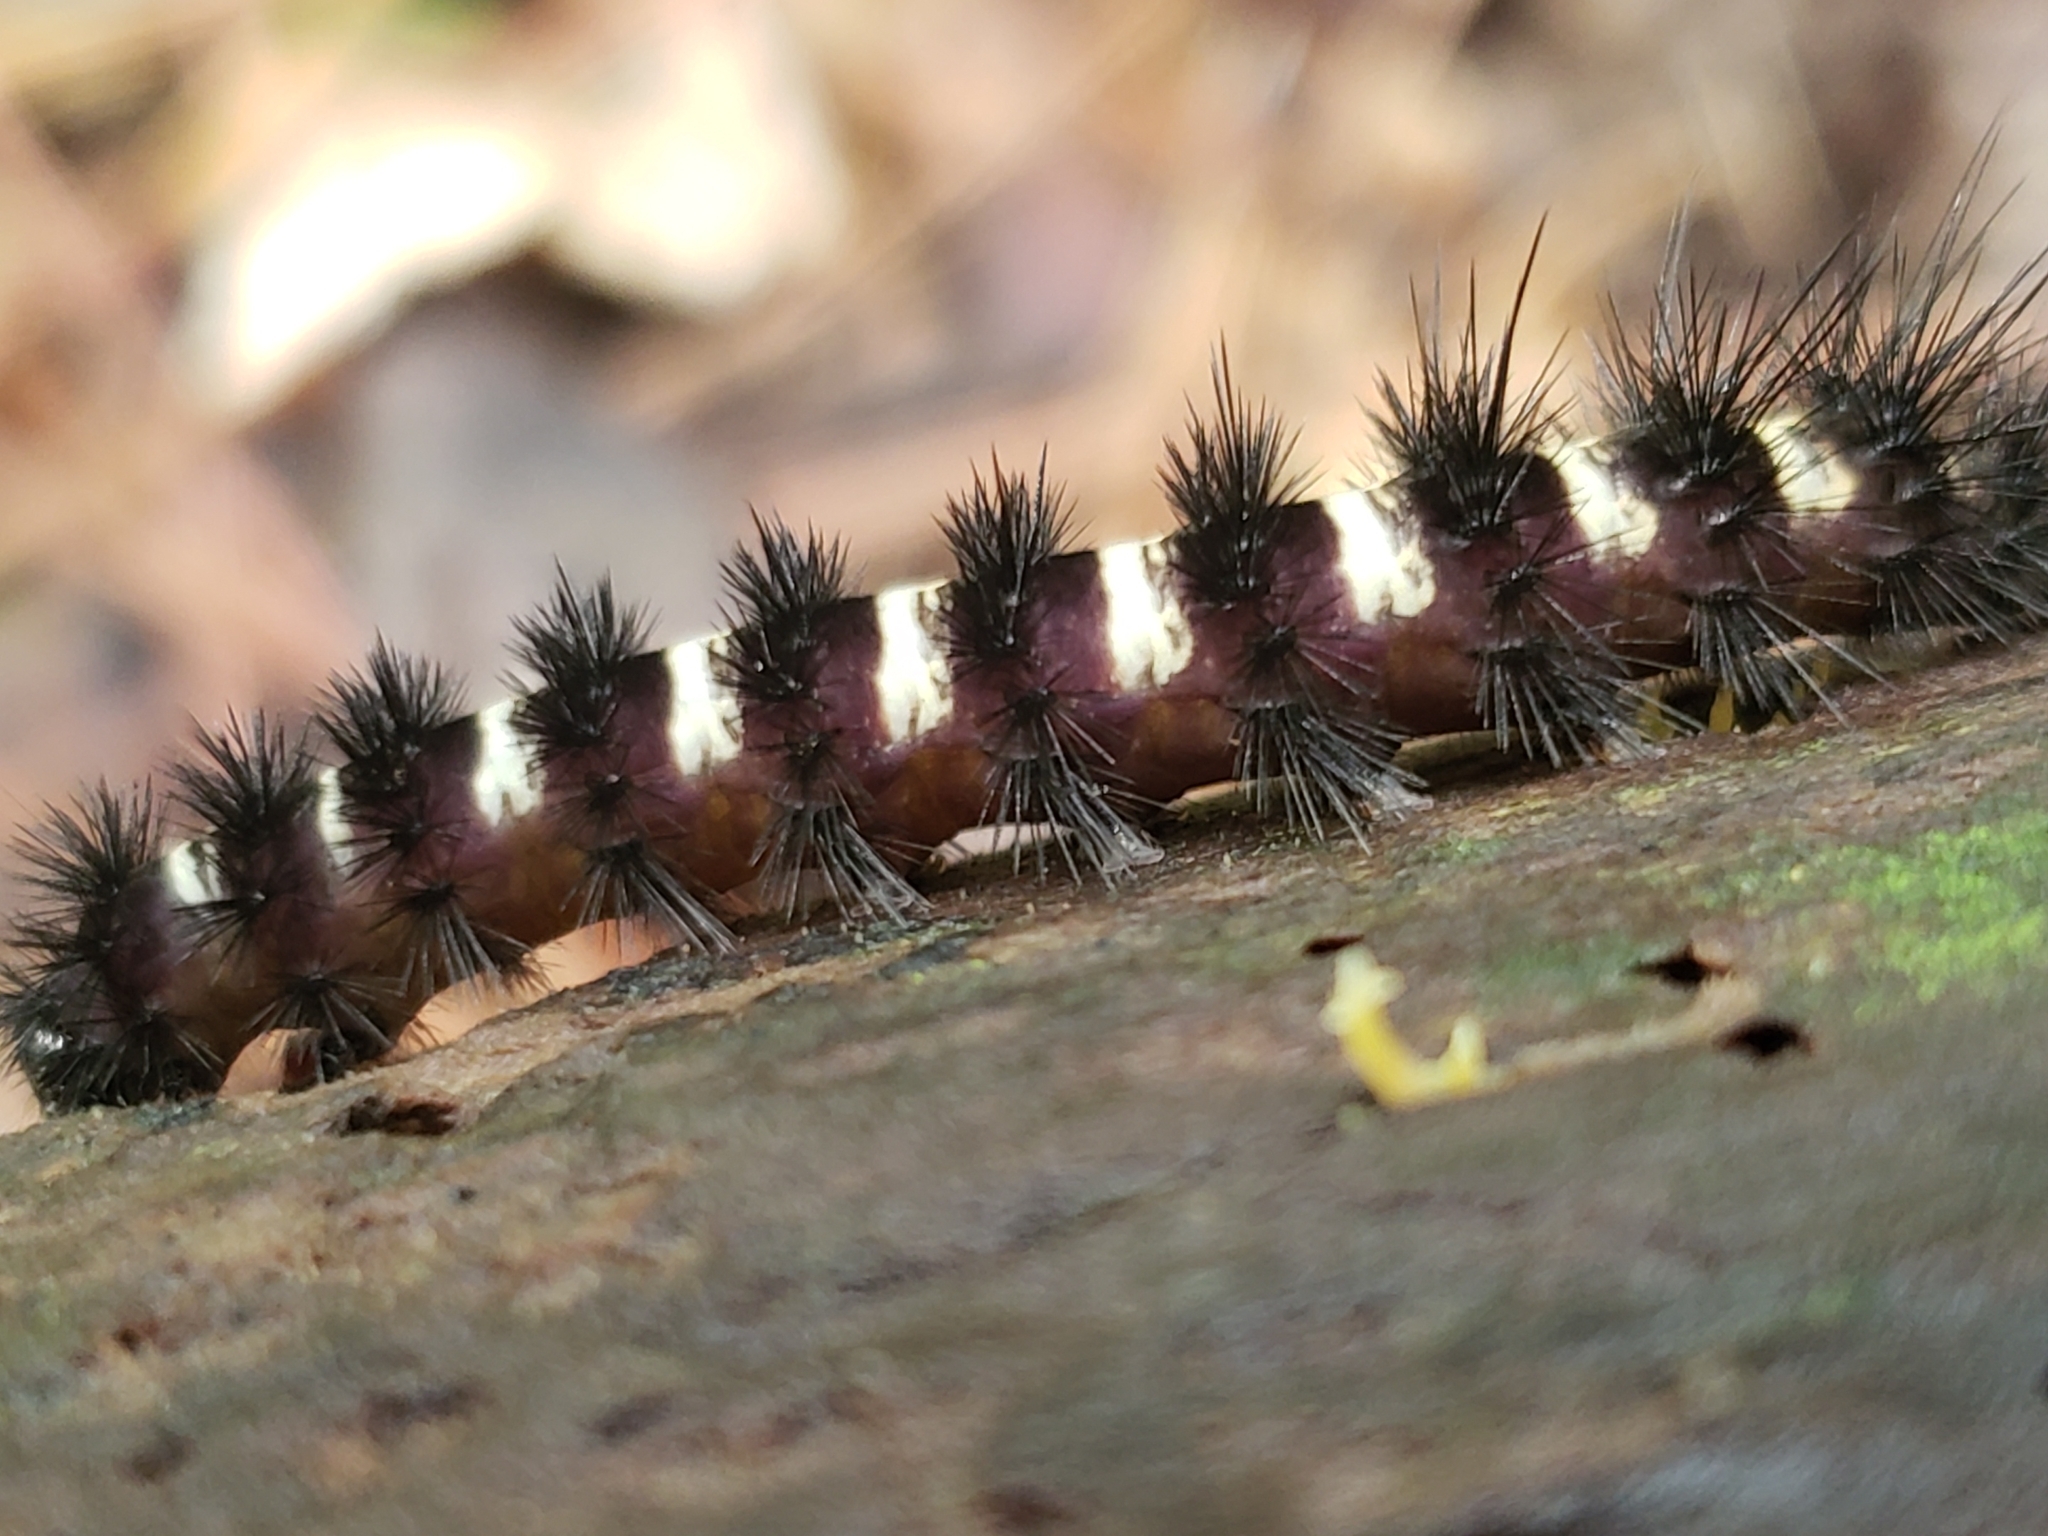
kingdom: Animalia
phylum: Arthropoda
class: Insecta
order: Lepidoptera
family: Erebidae
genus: Spilosoma
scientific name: Spilosoma congrua
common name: Agreeable tiger moth
